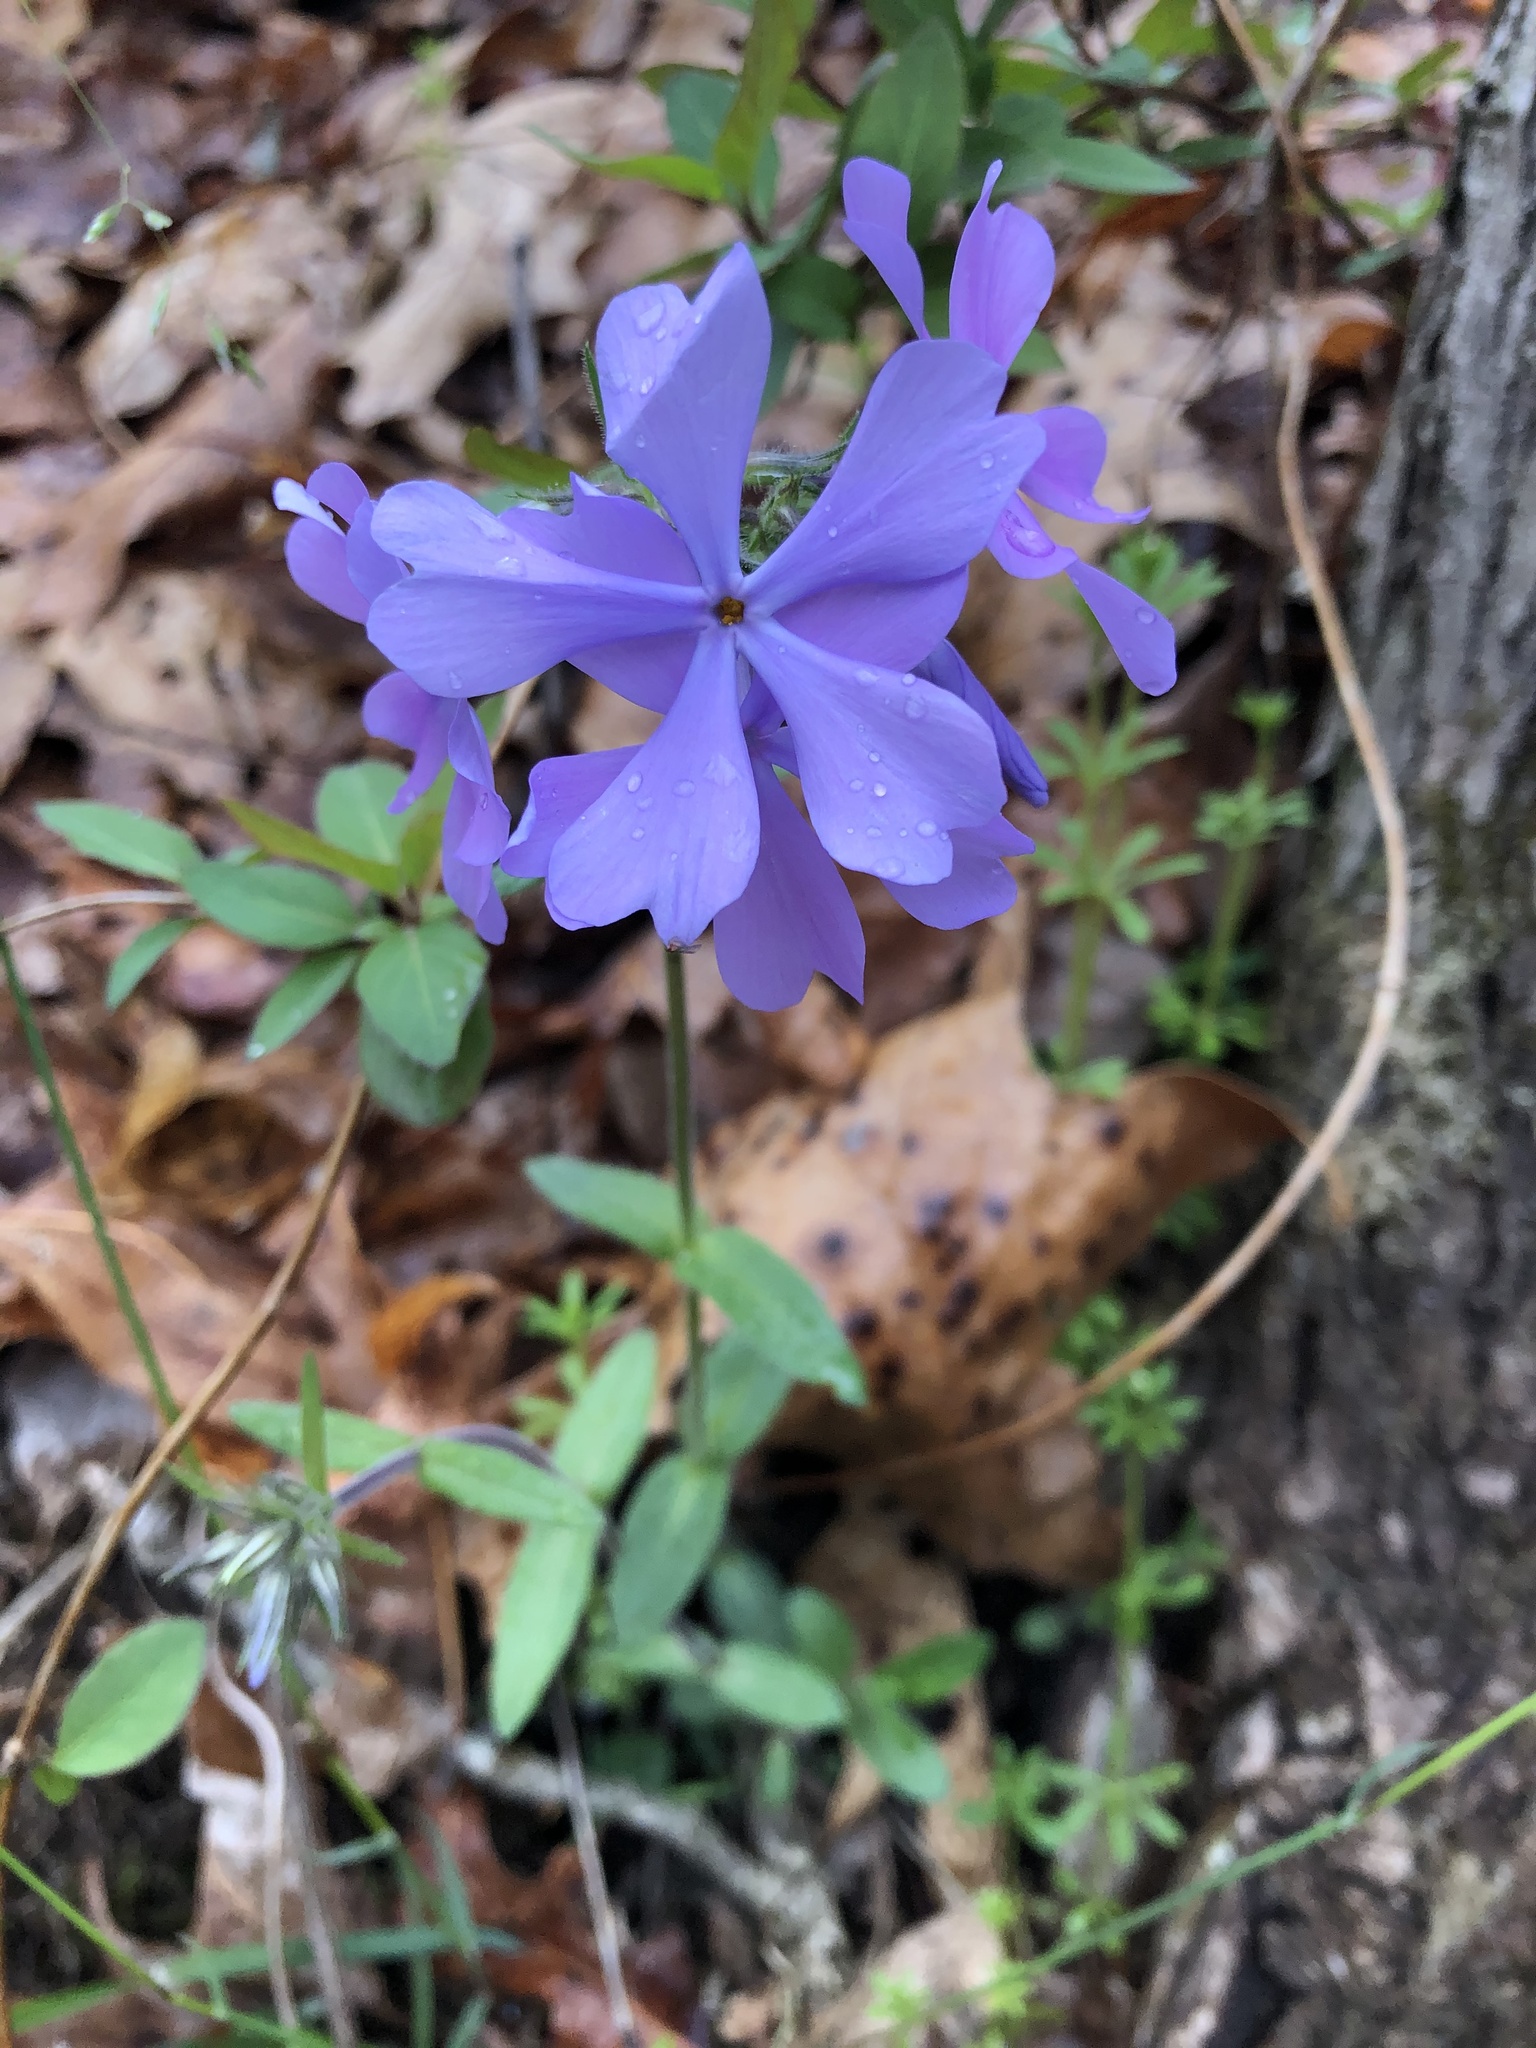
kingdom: Plantae
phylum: Tracheophyta
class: Magnoliopsida
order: Ericales
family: Polemoniaceae
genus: Phlox
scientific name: Phlox divaricata
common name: Blue phlox
